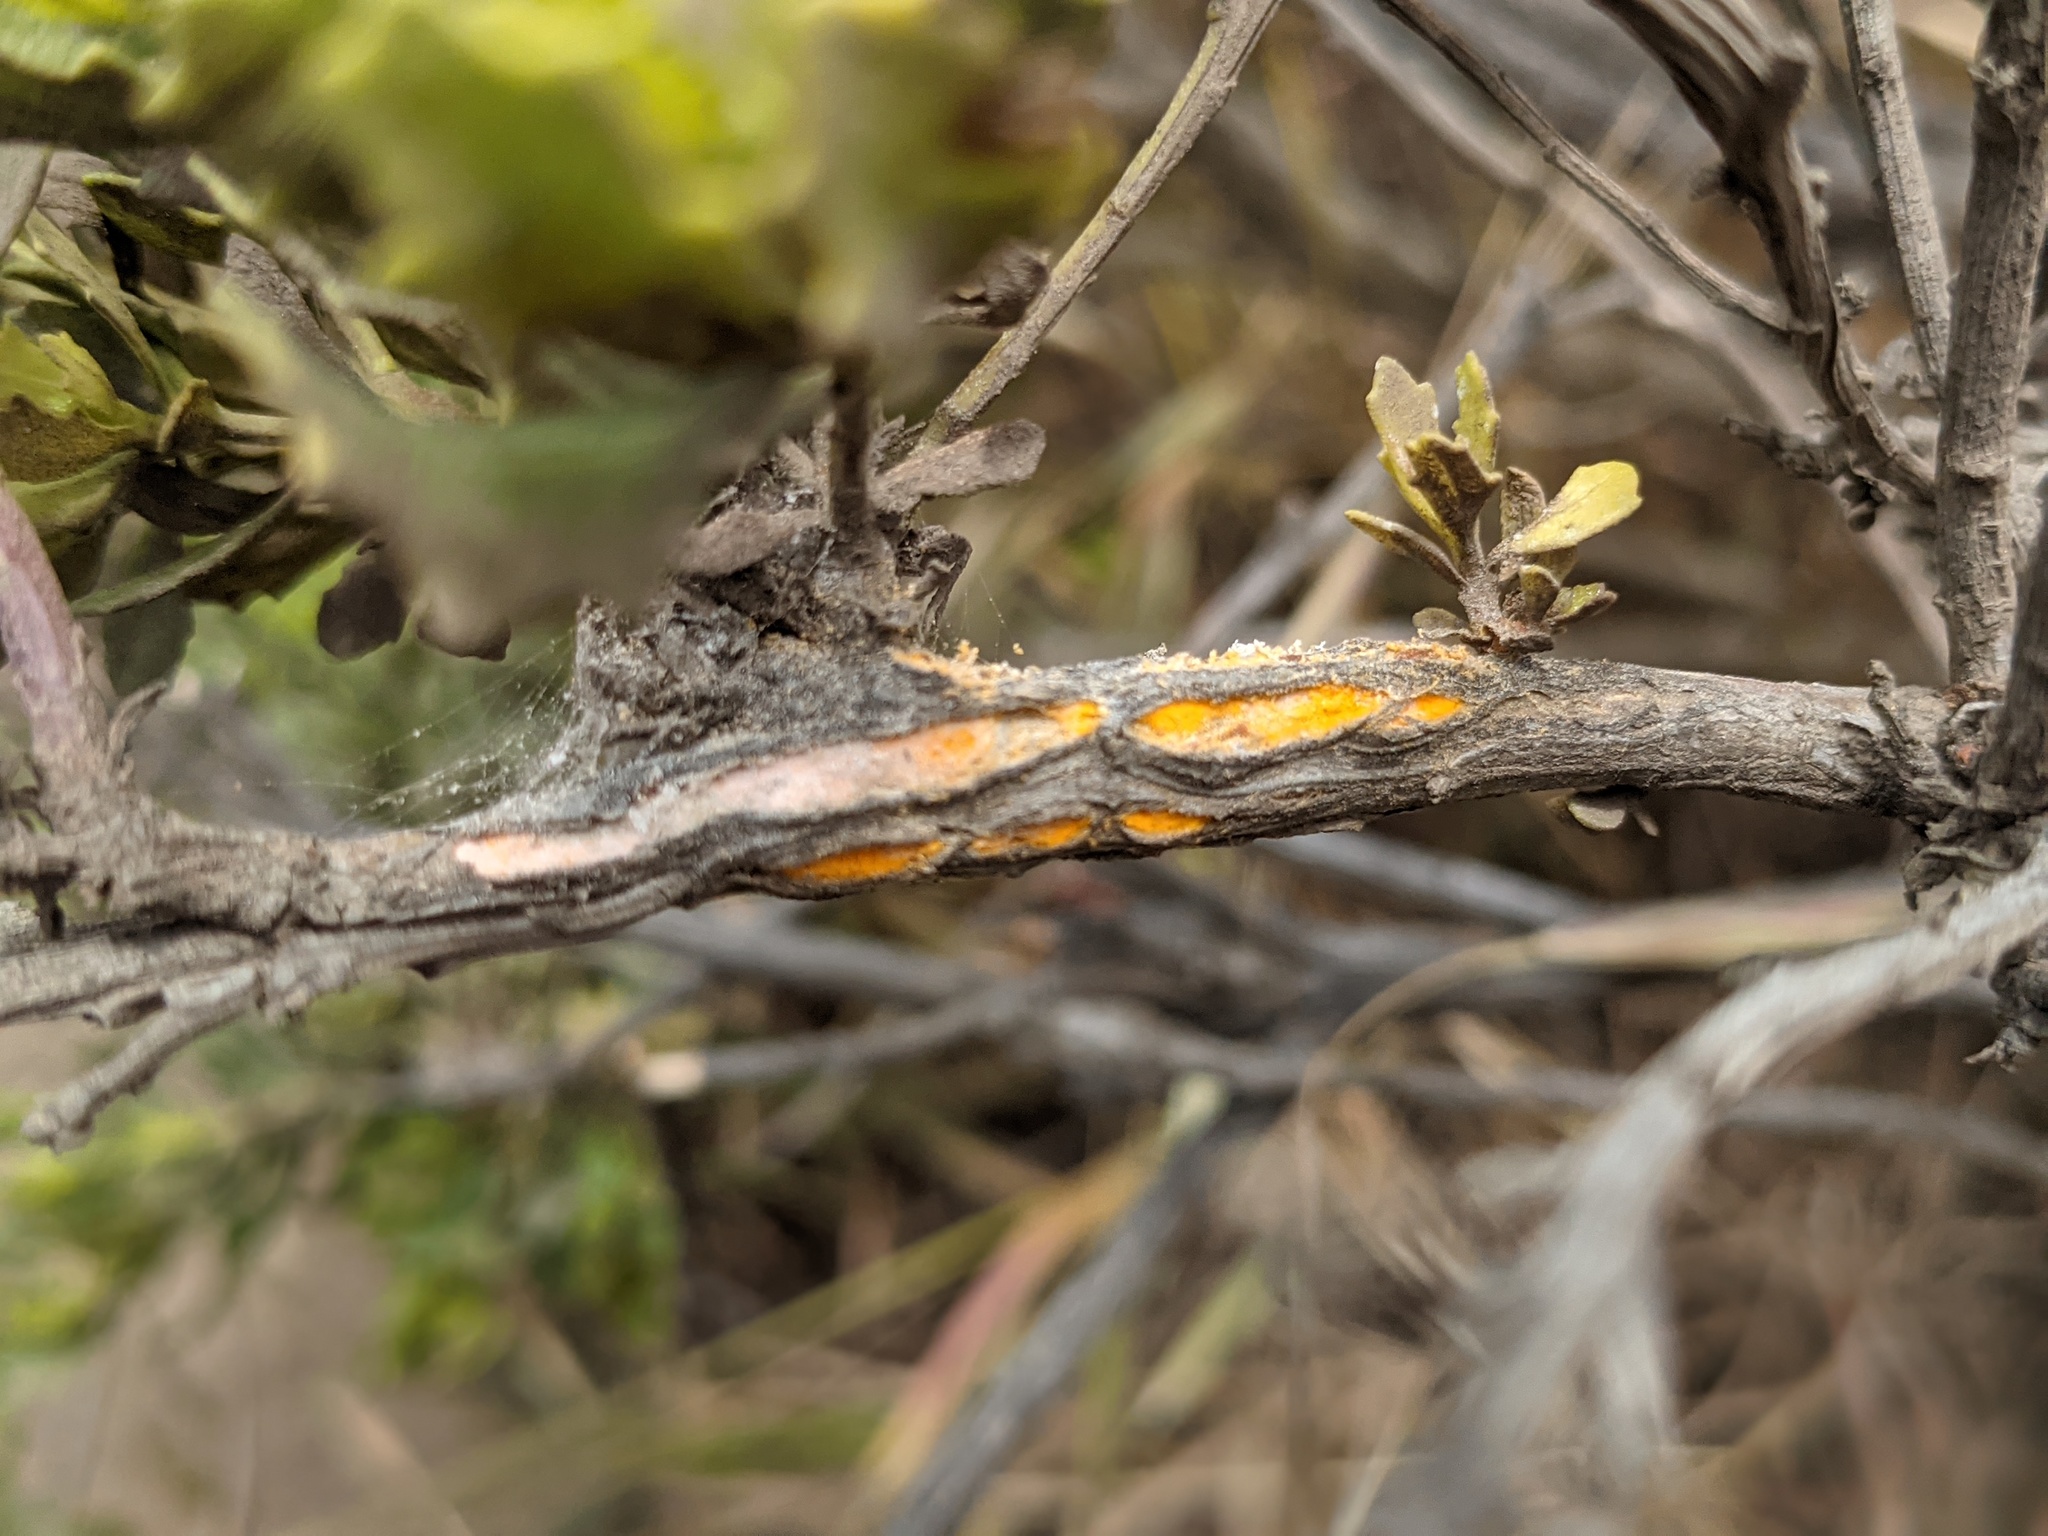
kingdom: Fungi
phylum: Basidiomycota
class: Pucciniomycetes
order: Pucciniales
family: Pucciniaceae
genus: Eriosporangium
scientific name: Eriosporangium evadens
